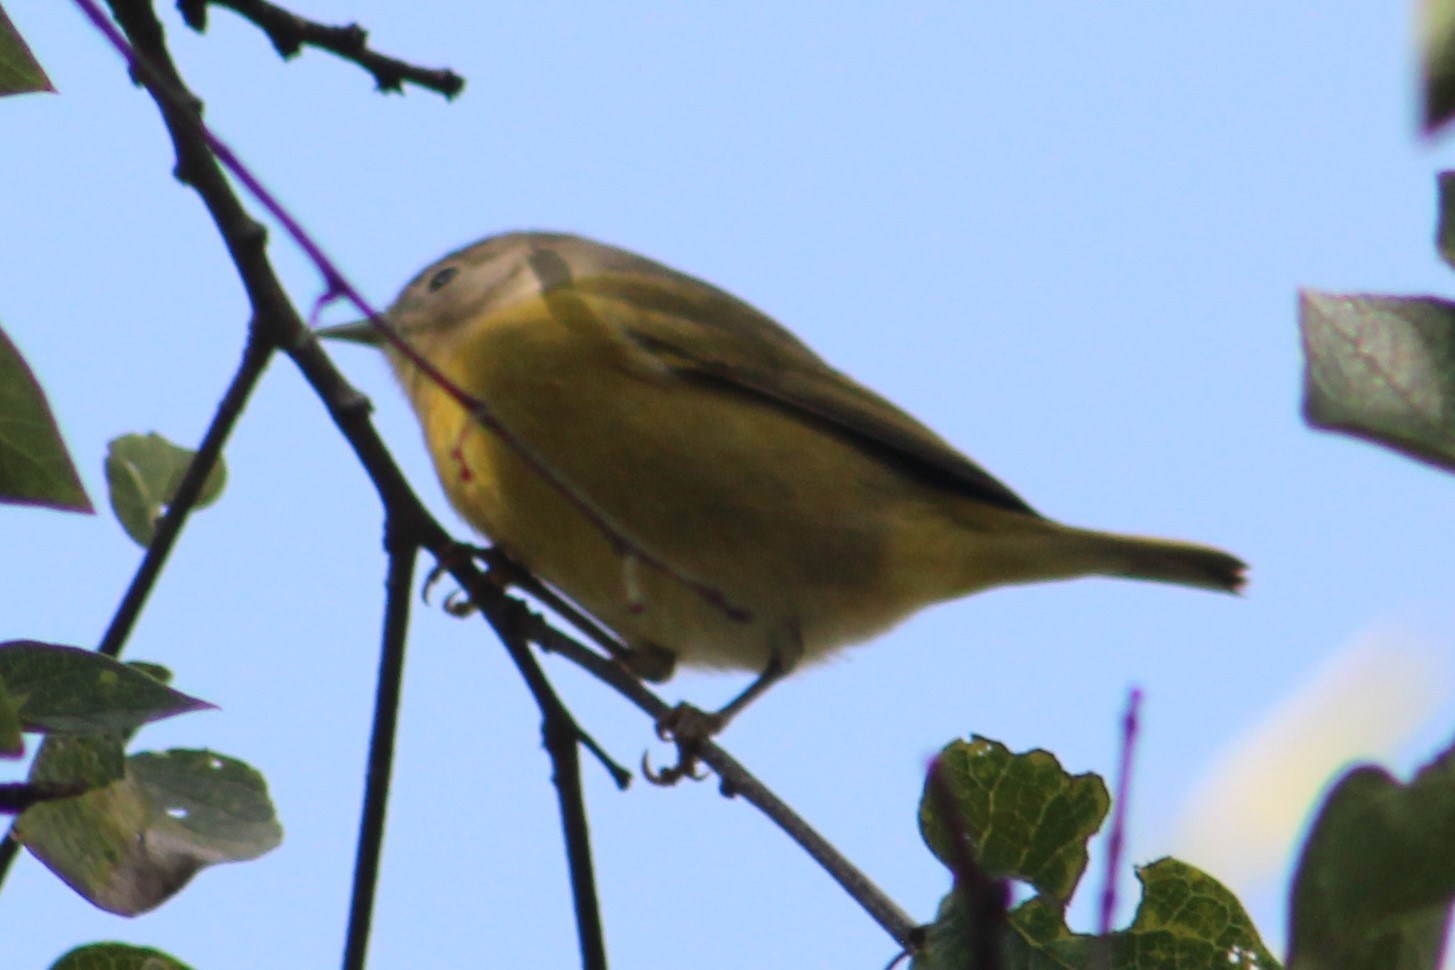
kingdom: Animalia
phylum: Chordata
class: Aves
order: Passeriformes
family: Parulidae
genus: Leiothlypis
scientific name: Leiothlypis ruficapilla
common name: Nashville warbler
